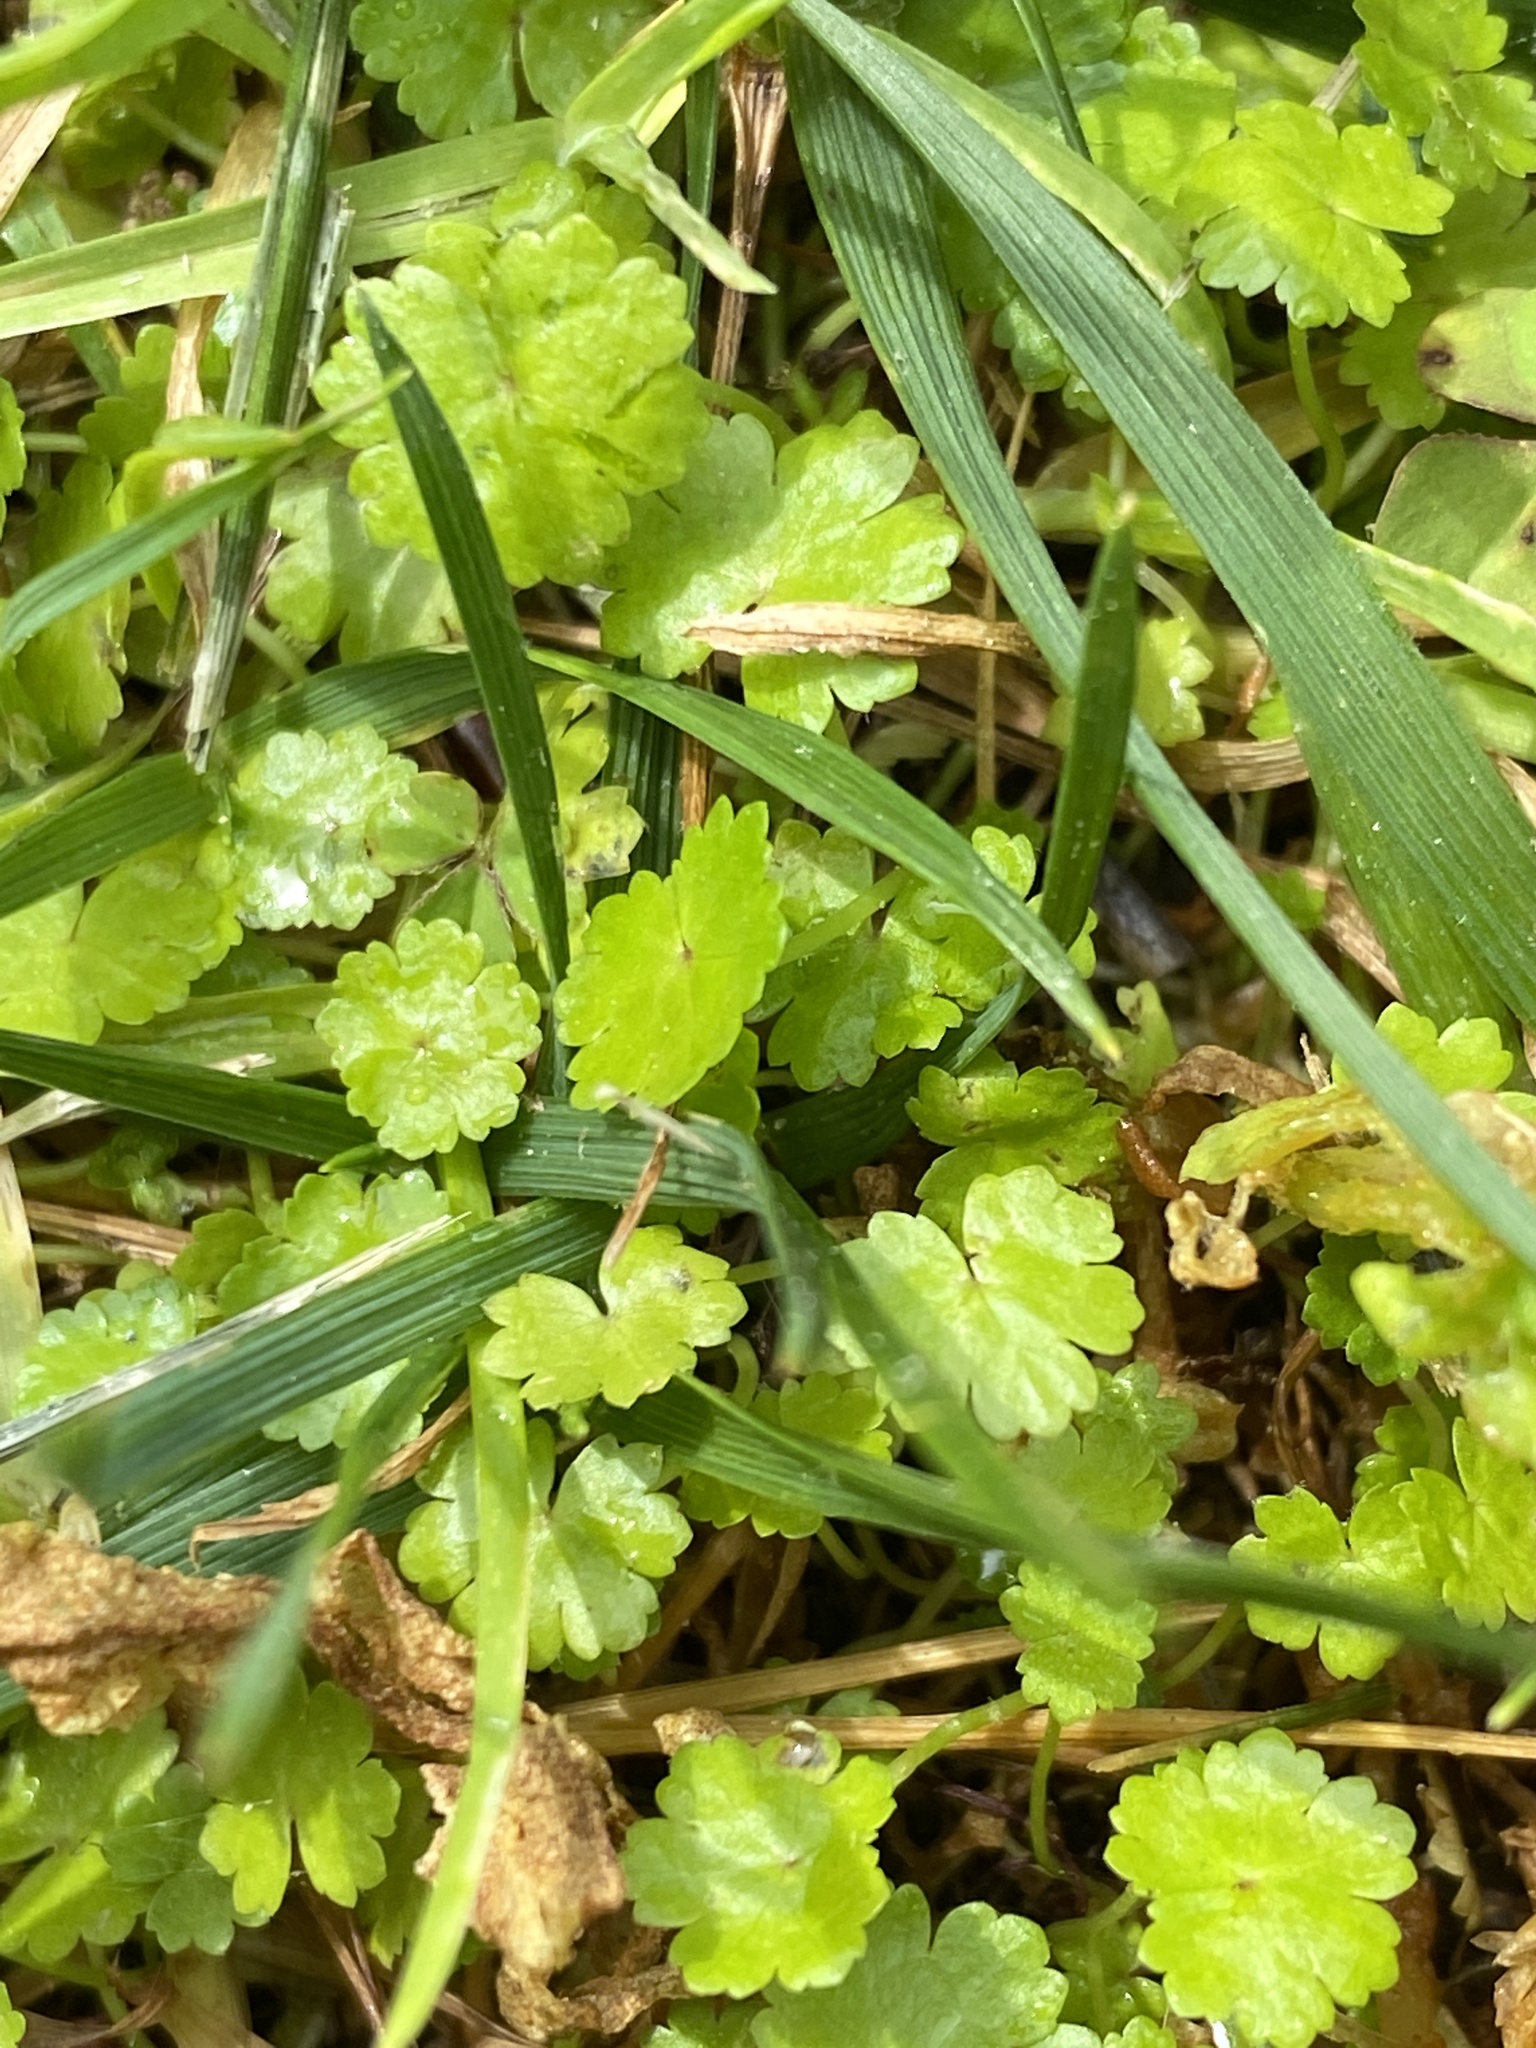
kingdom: Plantae
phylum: Tracheophyta
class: Magnoliopsida
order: Apiales
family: Araliaceae
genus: Hydrocotyle
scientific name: Hydrocotyle sibthorpioides
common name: Lawn marshpennywort
